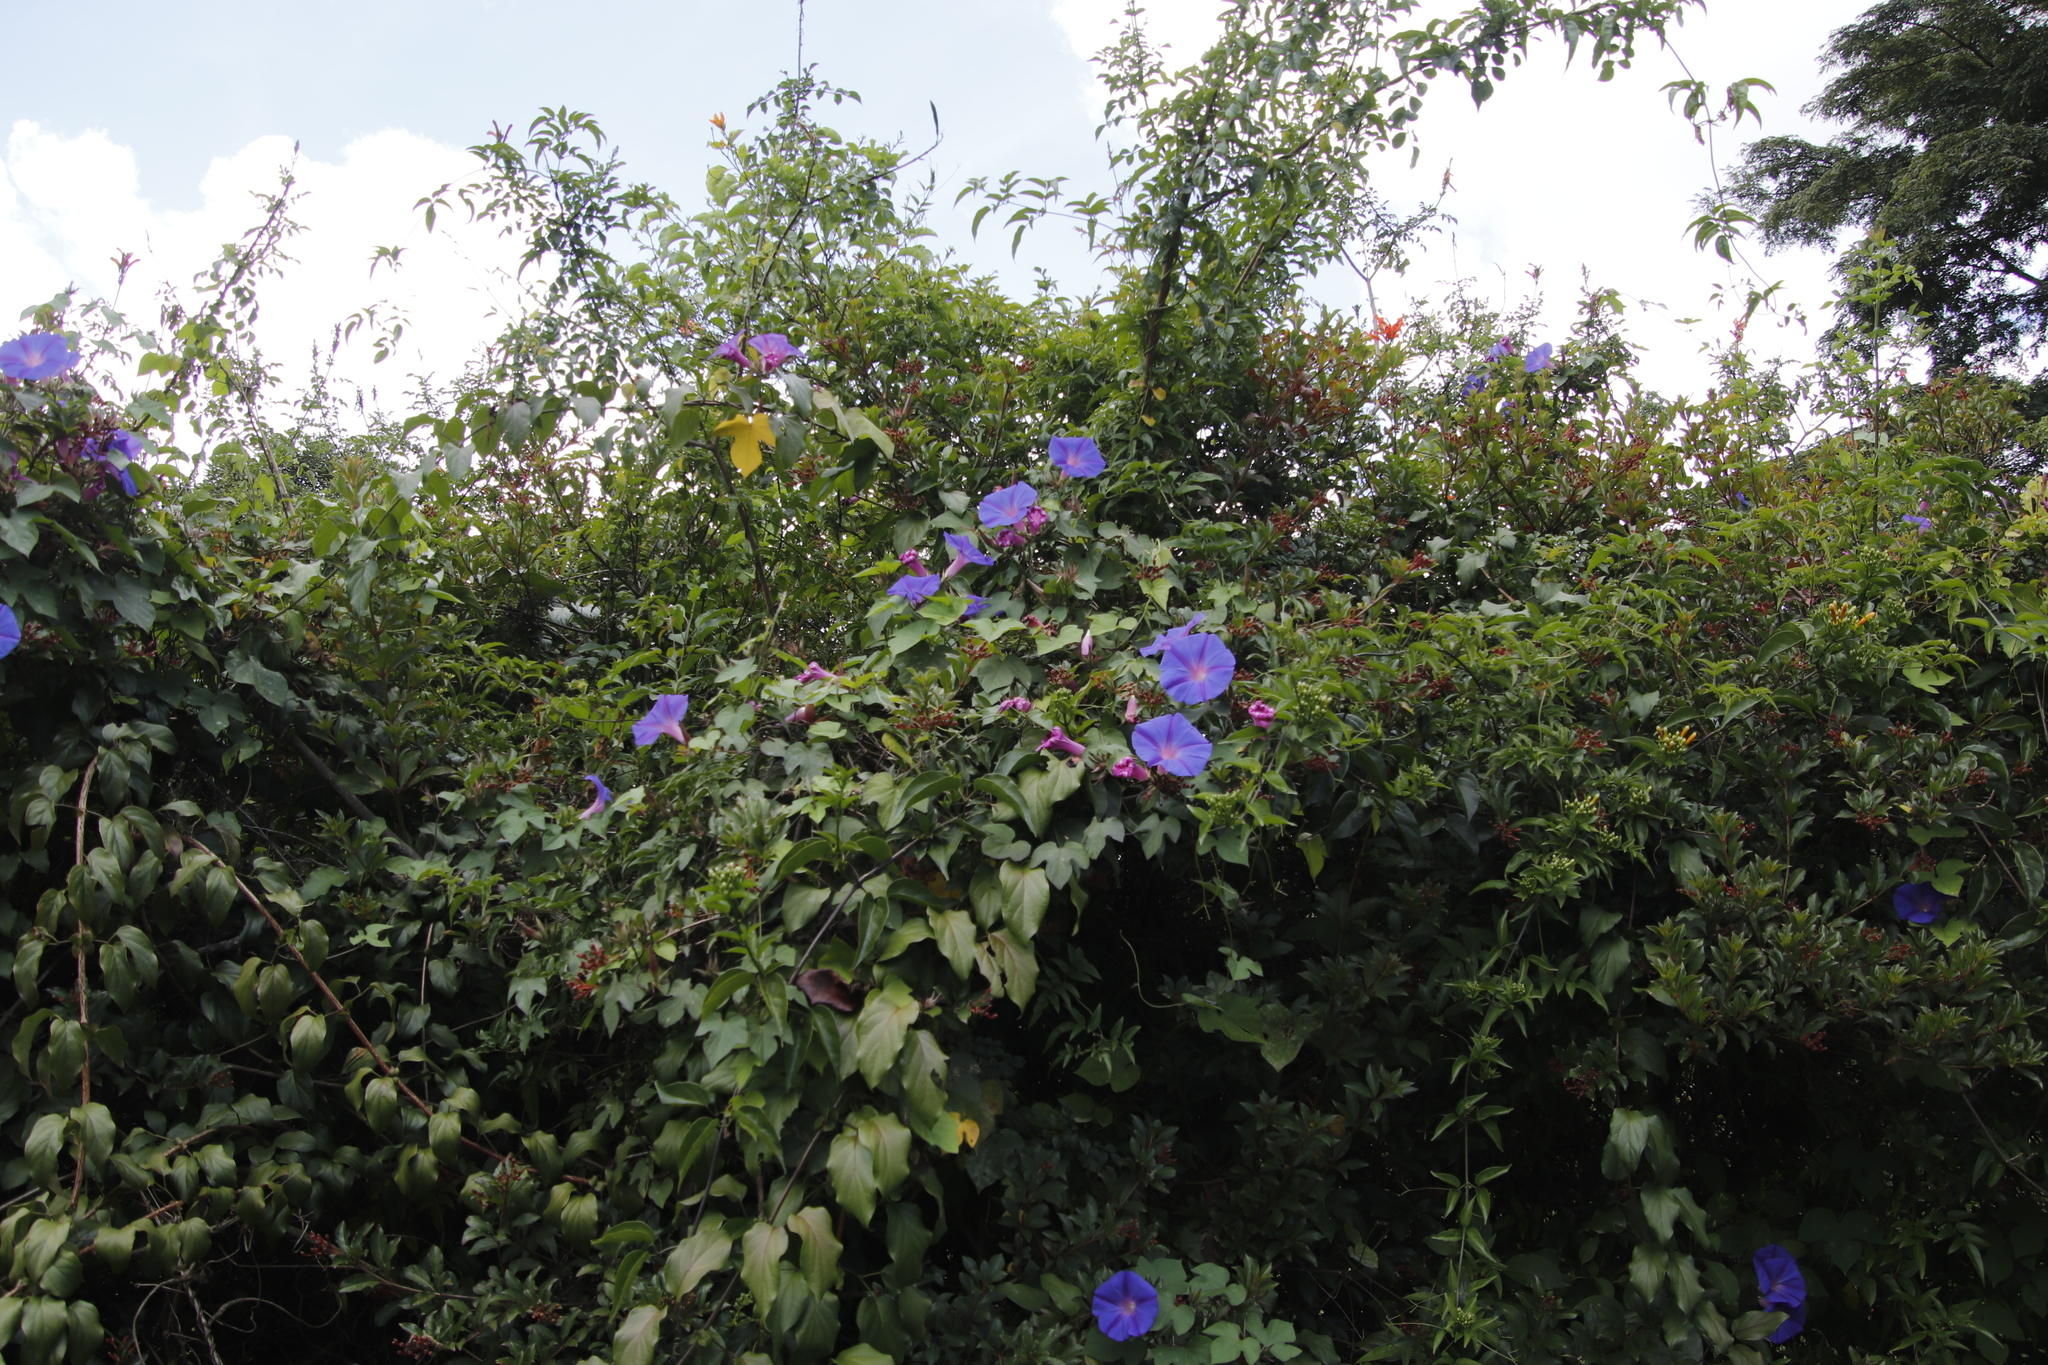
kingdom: Plantae
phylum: Tracheophyta
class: Magnoliopsida
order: Solanales
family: Convolvulaceae
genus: Ipomoea
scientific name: Ipomoea indica
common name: Blue dawnflower
